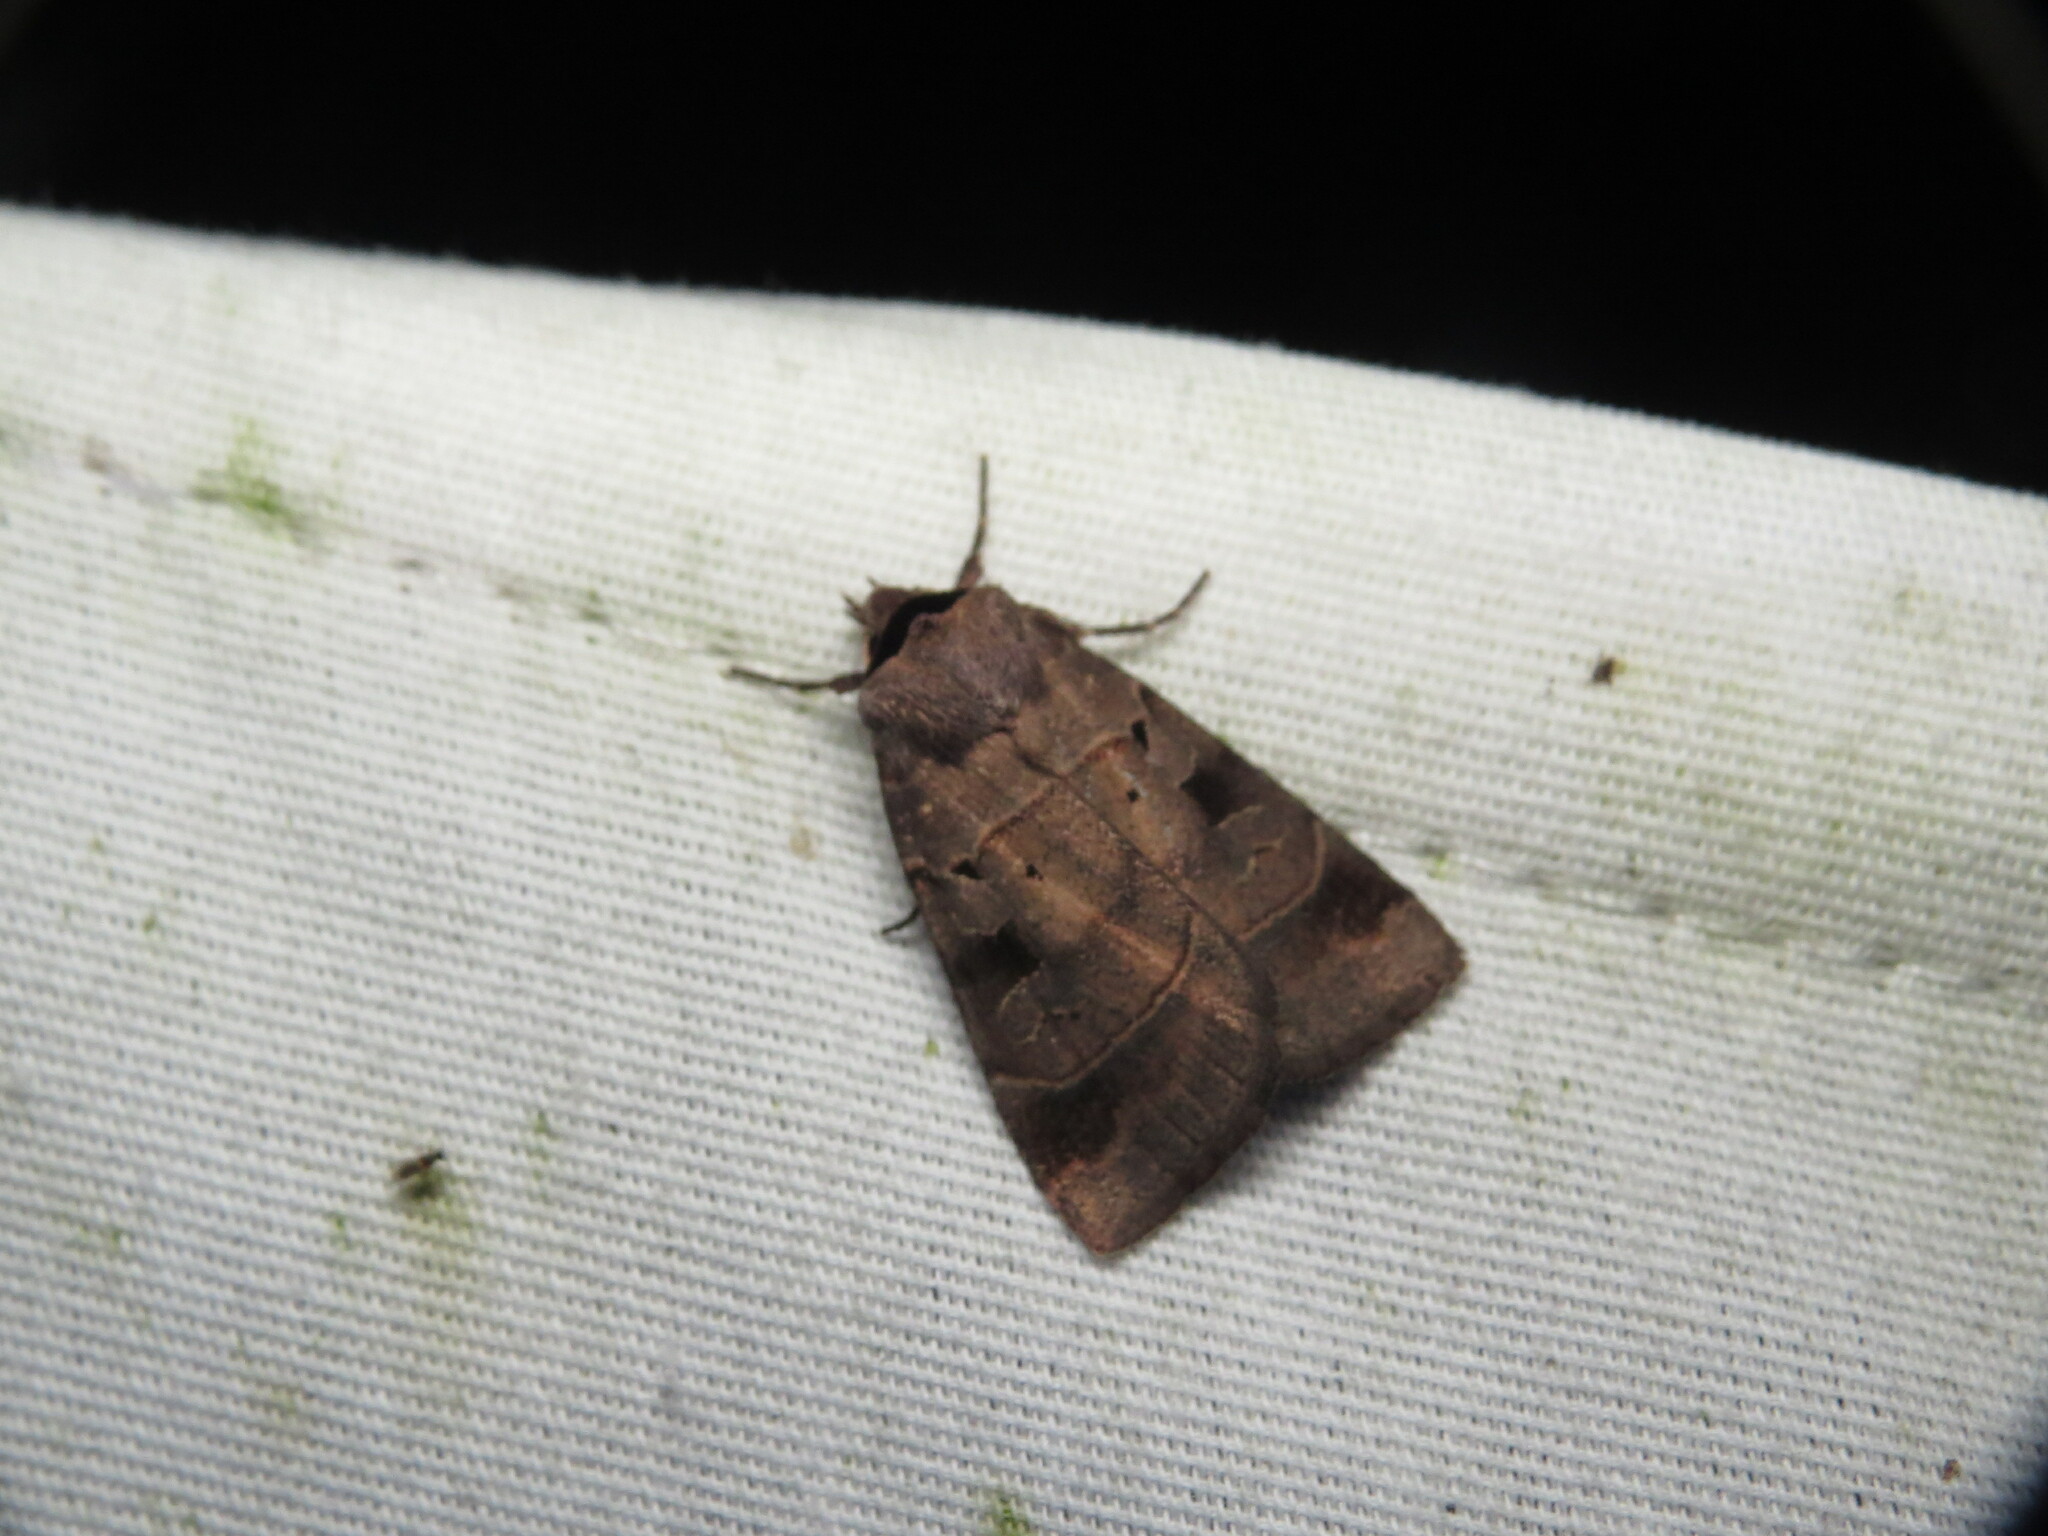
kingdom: Animalia
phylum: Arthropoda
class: Insecta
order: Lepidoptera
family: Noctuidae
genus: Agnorisma
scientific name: Agnorisma badinodis
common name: Pale-banded dart
